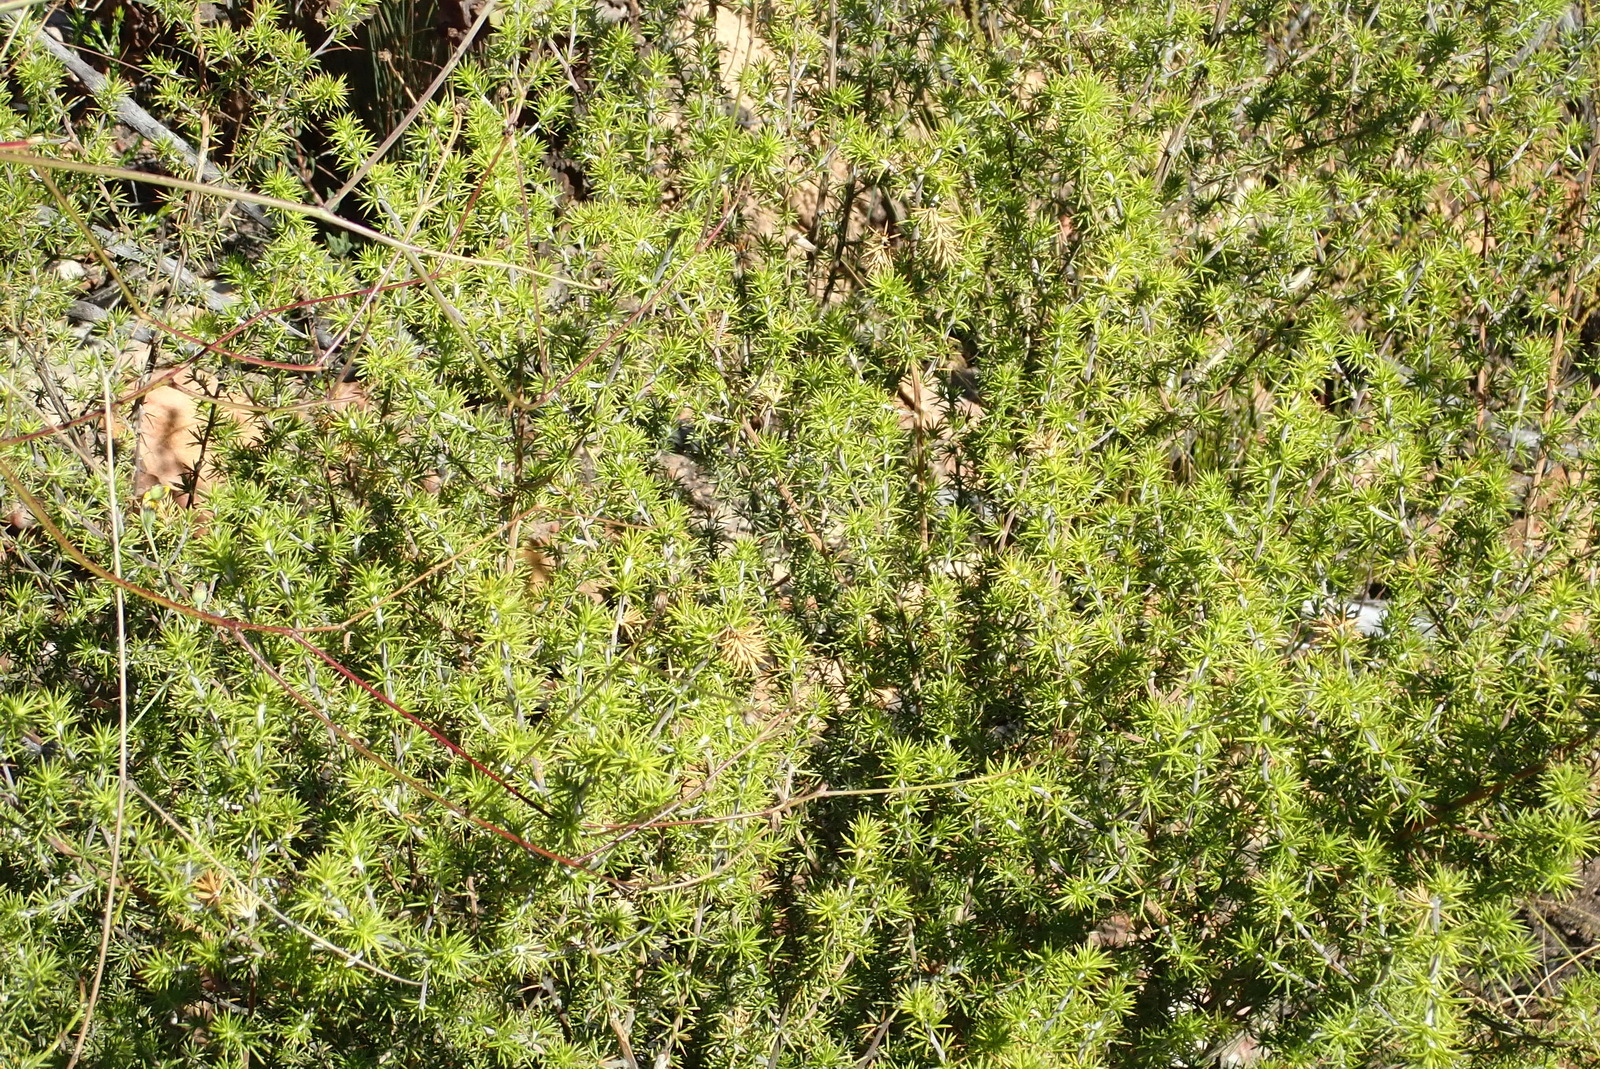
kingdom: Plantae
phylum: Tracheophyta
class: Magnoliopsida
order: Fabales
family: Fabaceae
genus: Aspalathus
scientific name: Aspalathus hirta
